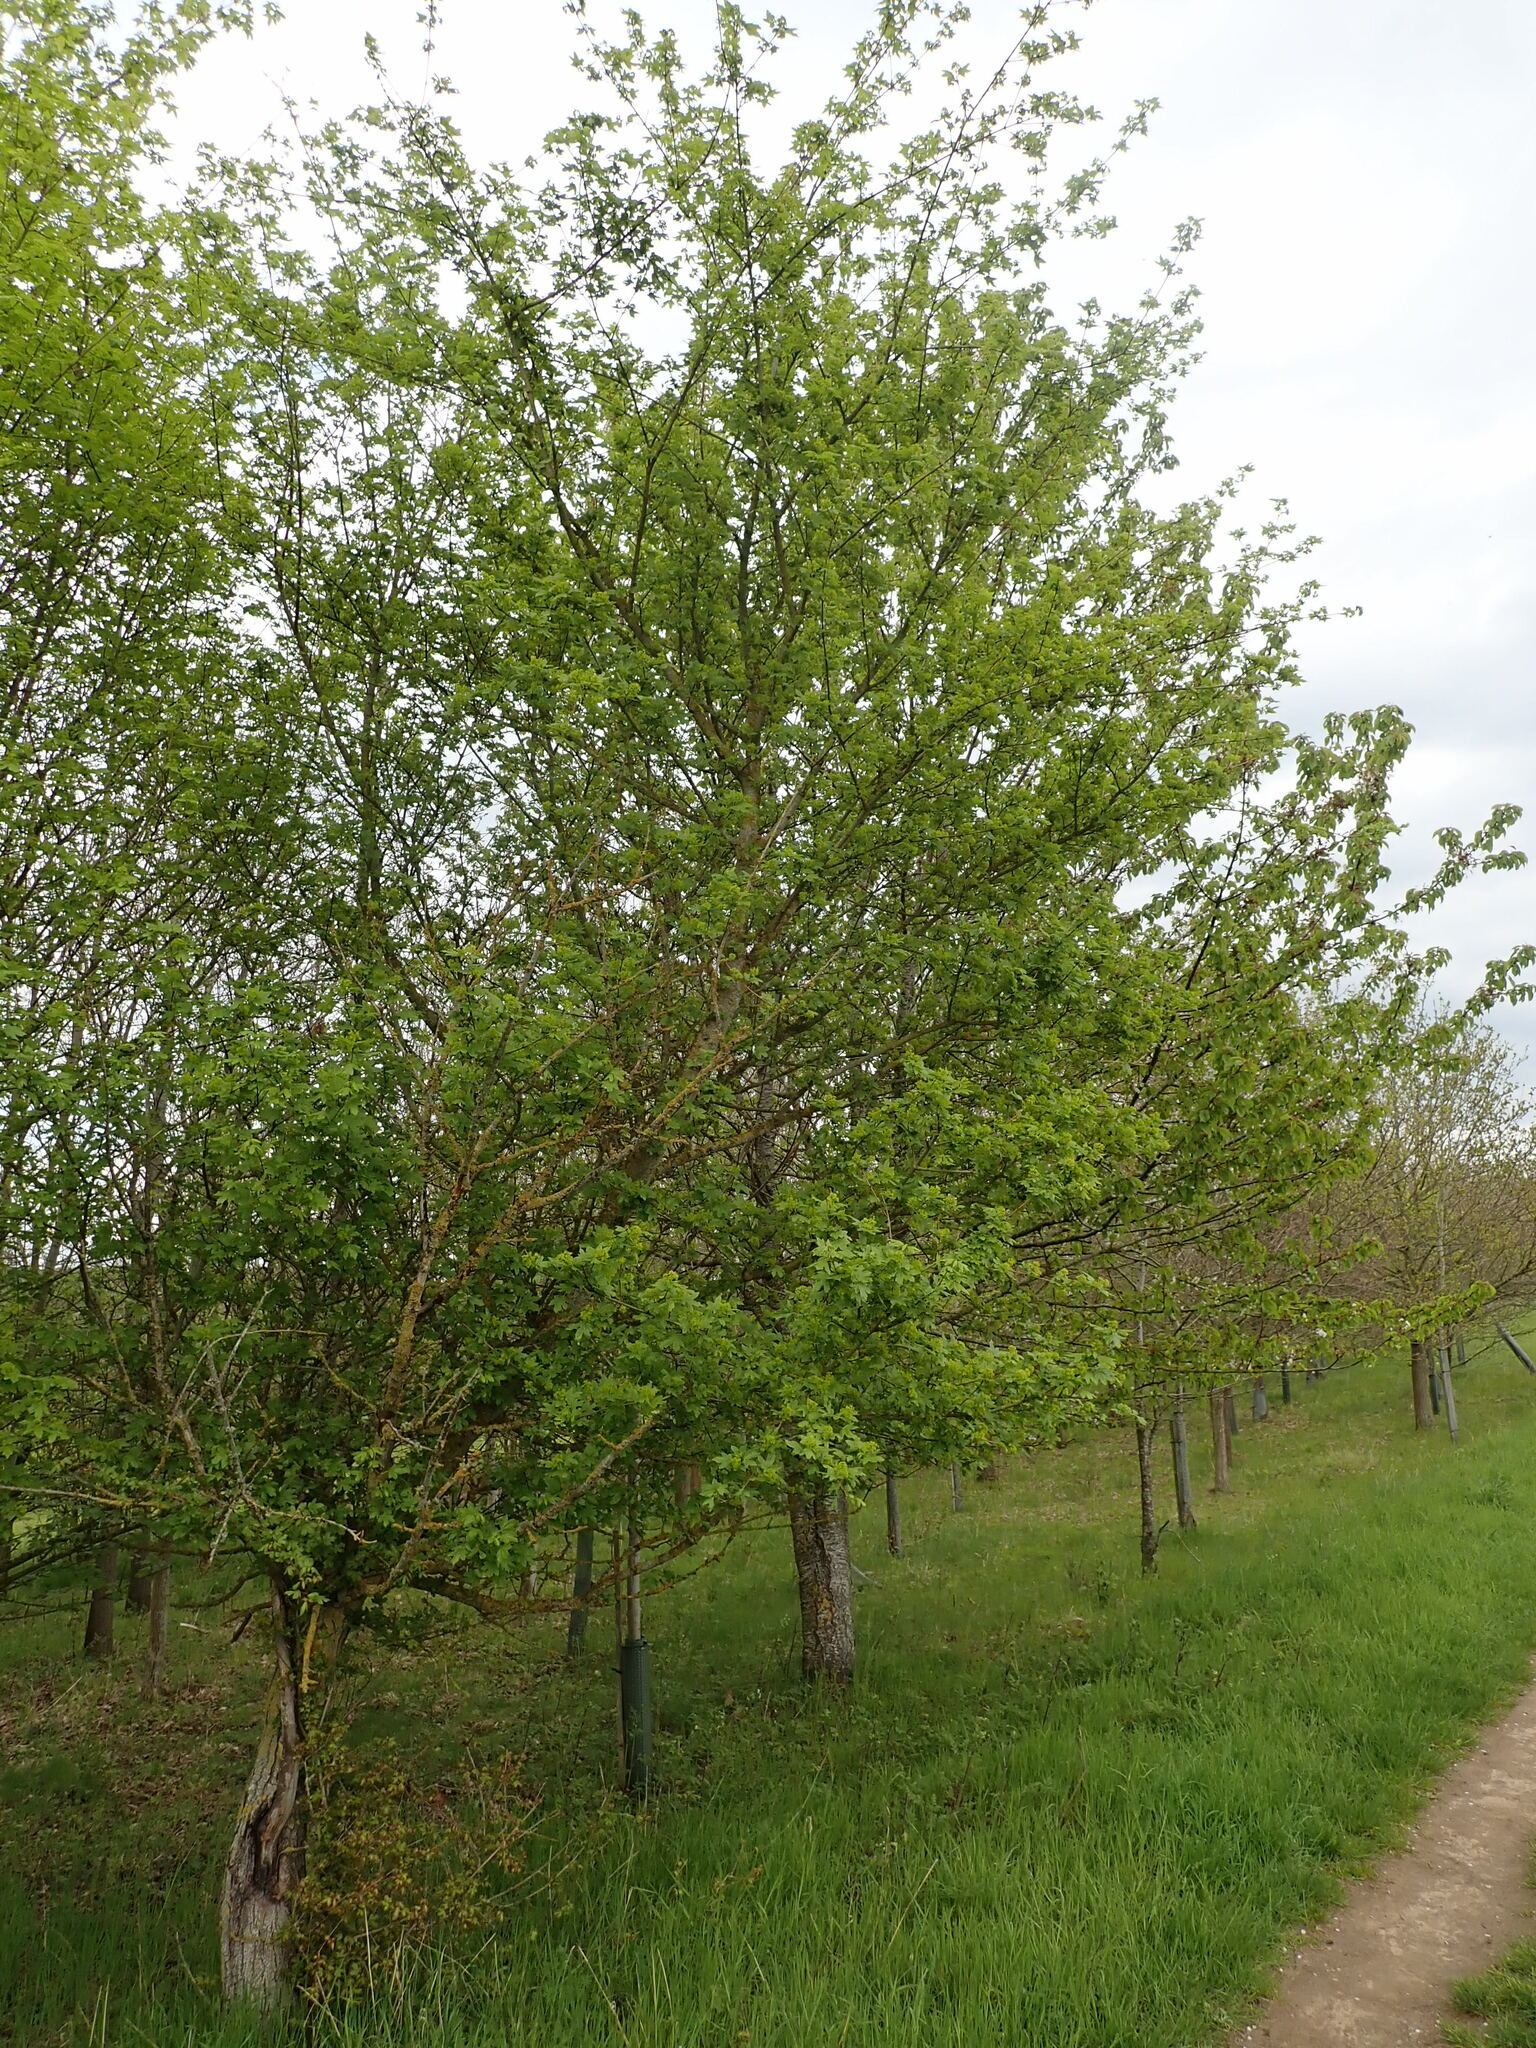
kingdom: Plantae
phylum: Tracheophyta
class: Magnoliopsida
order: Sapindales
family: Sapindaceae
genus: Acer
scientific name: Acer campestre
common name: Field maple
